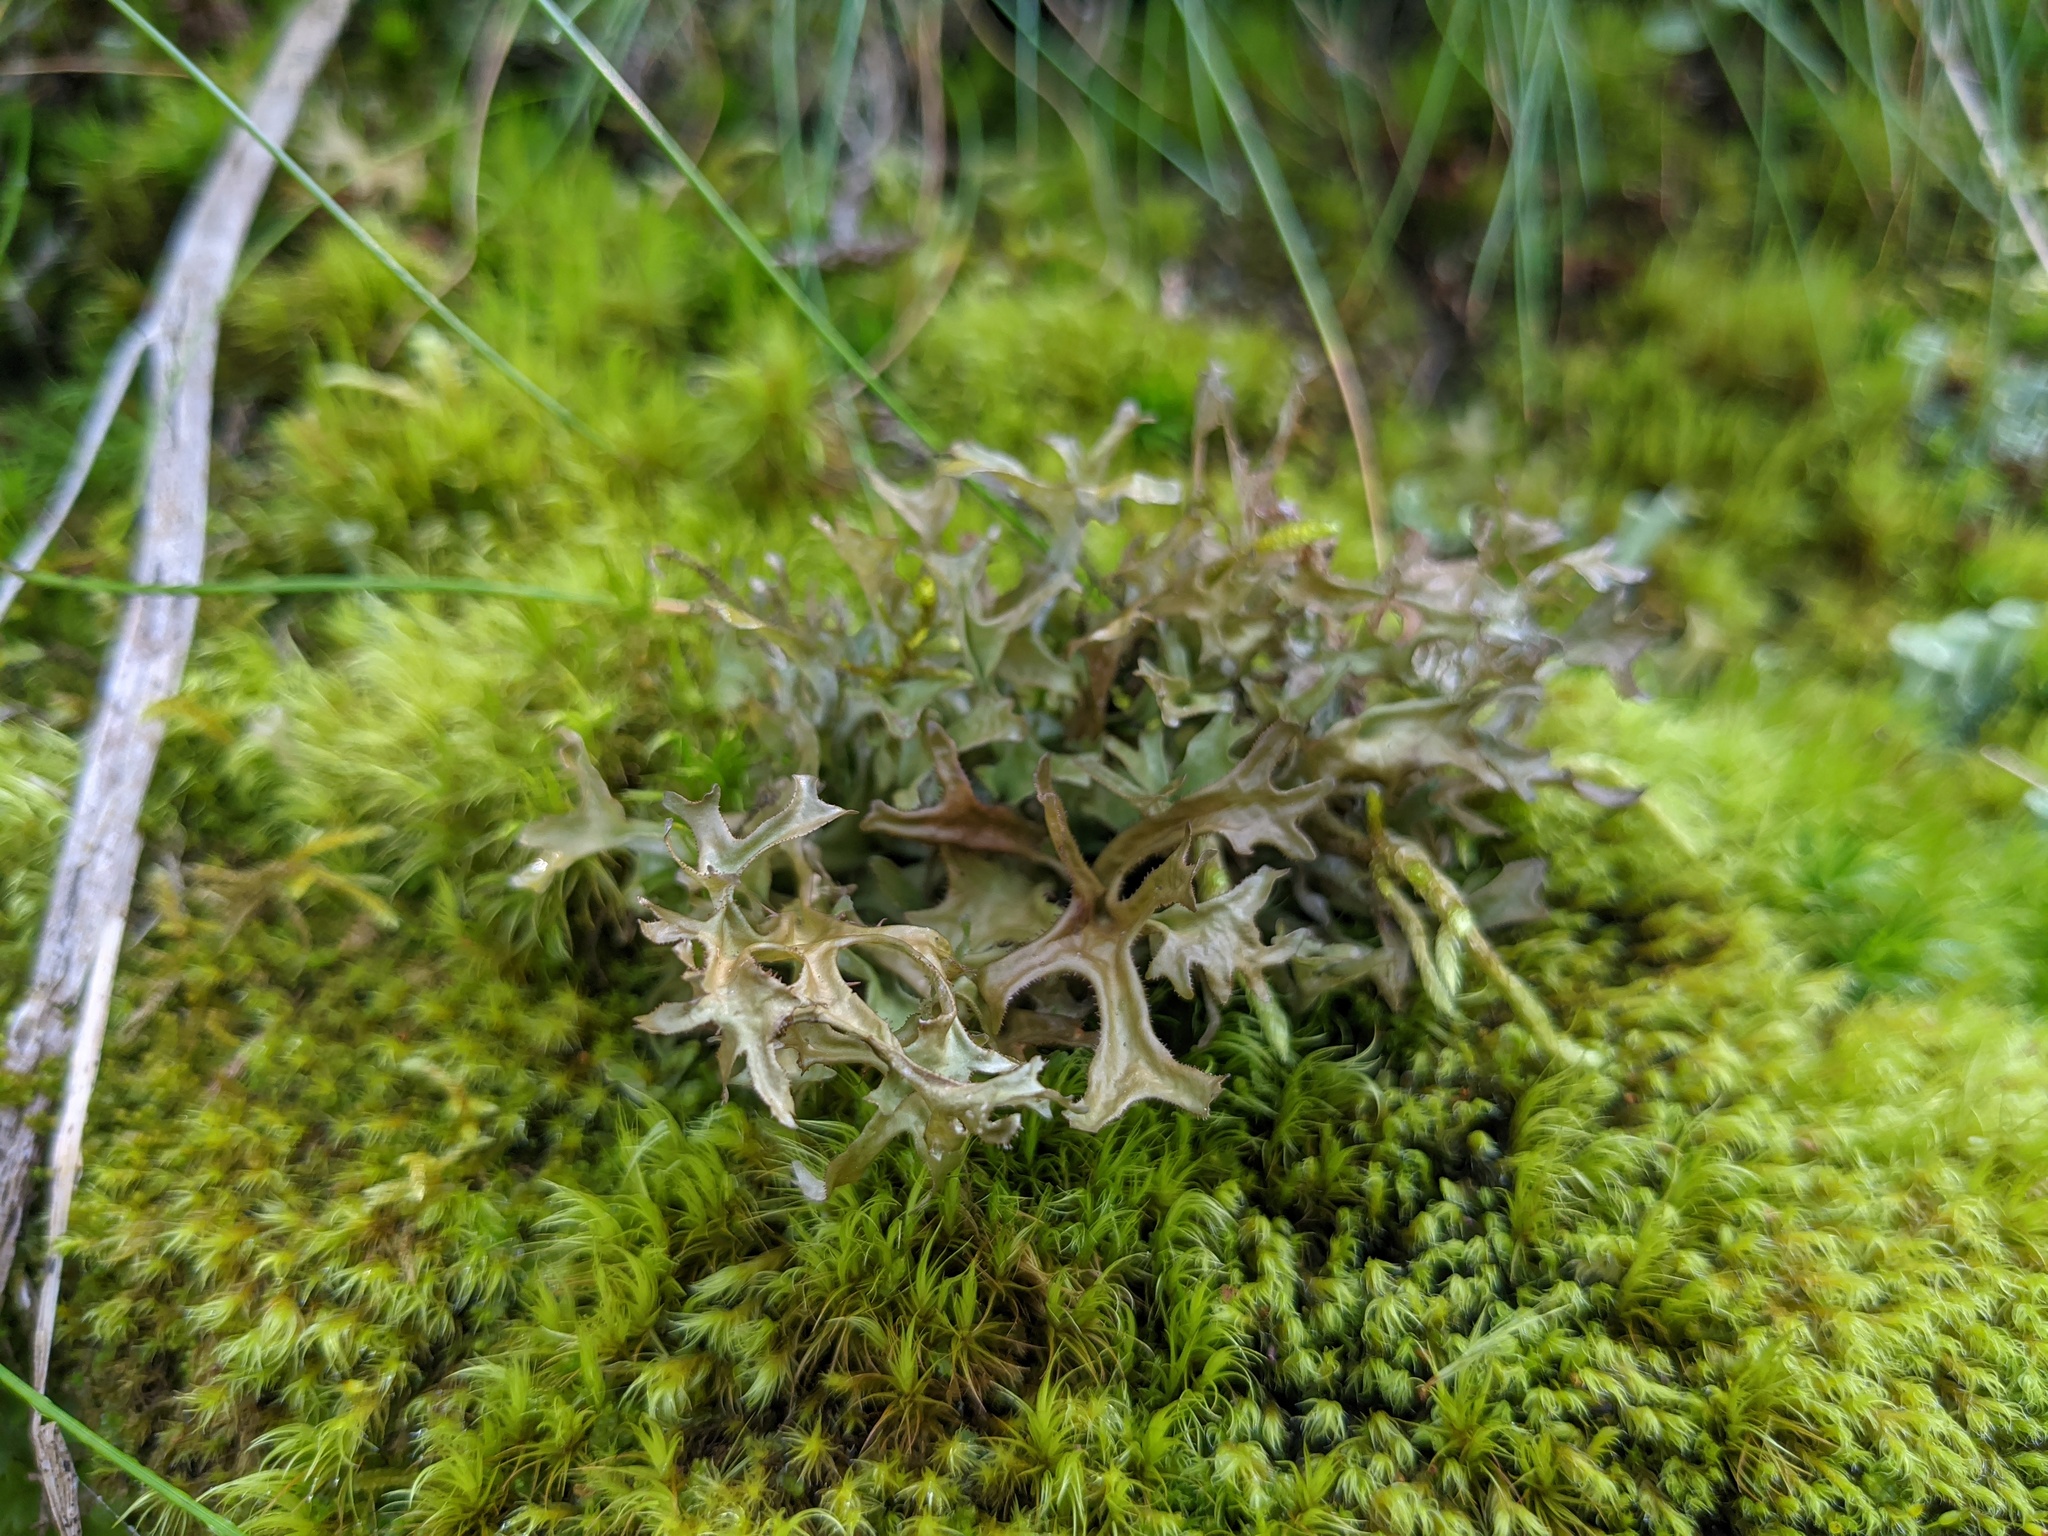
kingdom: Fungi
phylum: Ascomycota
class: Lecanoromycetes
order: Lecanorales
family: Parmeliaceae
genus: Cetraria
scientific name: Cetraria islandica
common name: Iceland lichen
